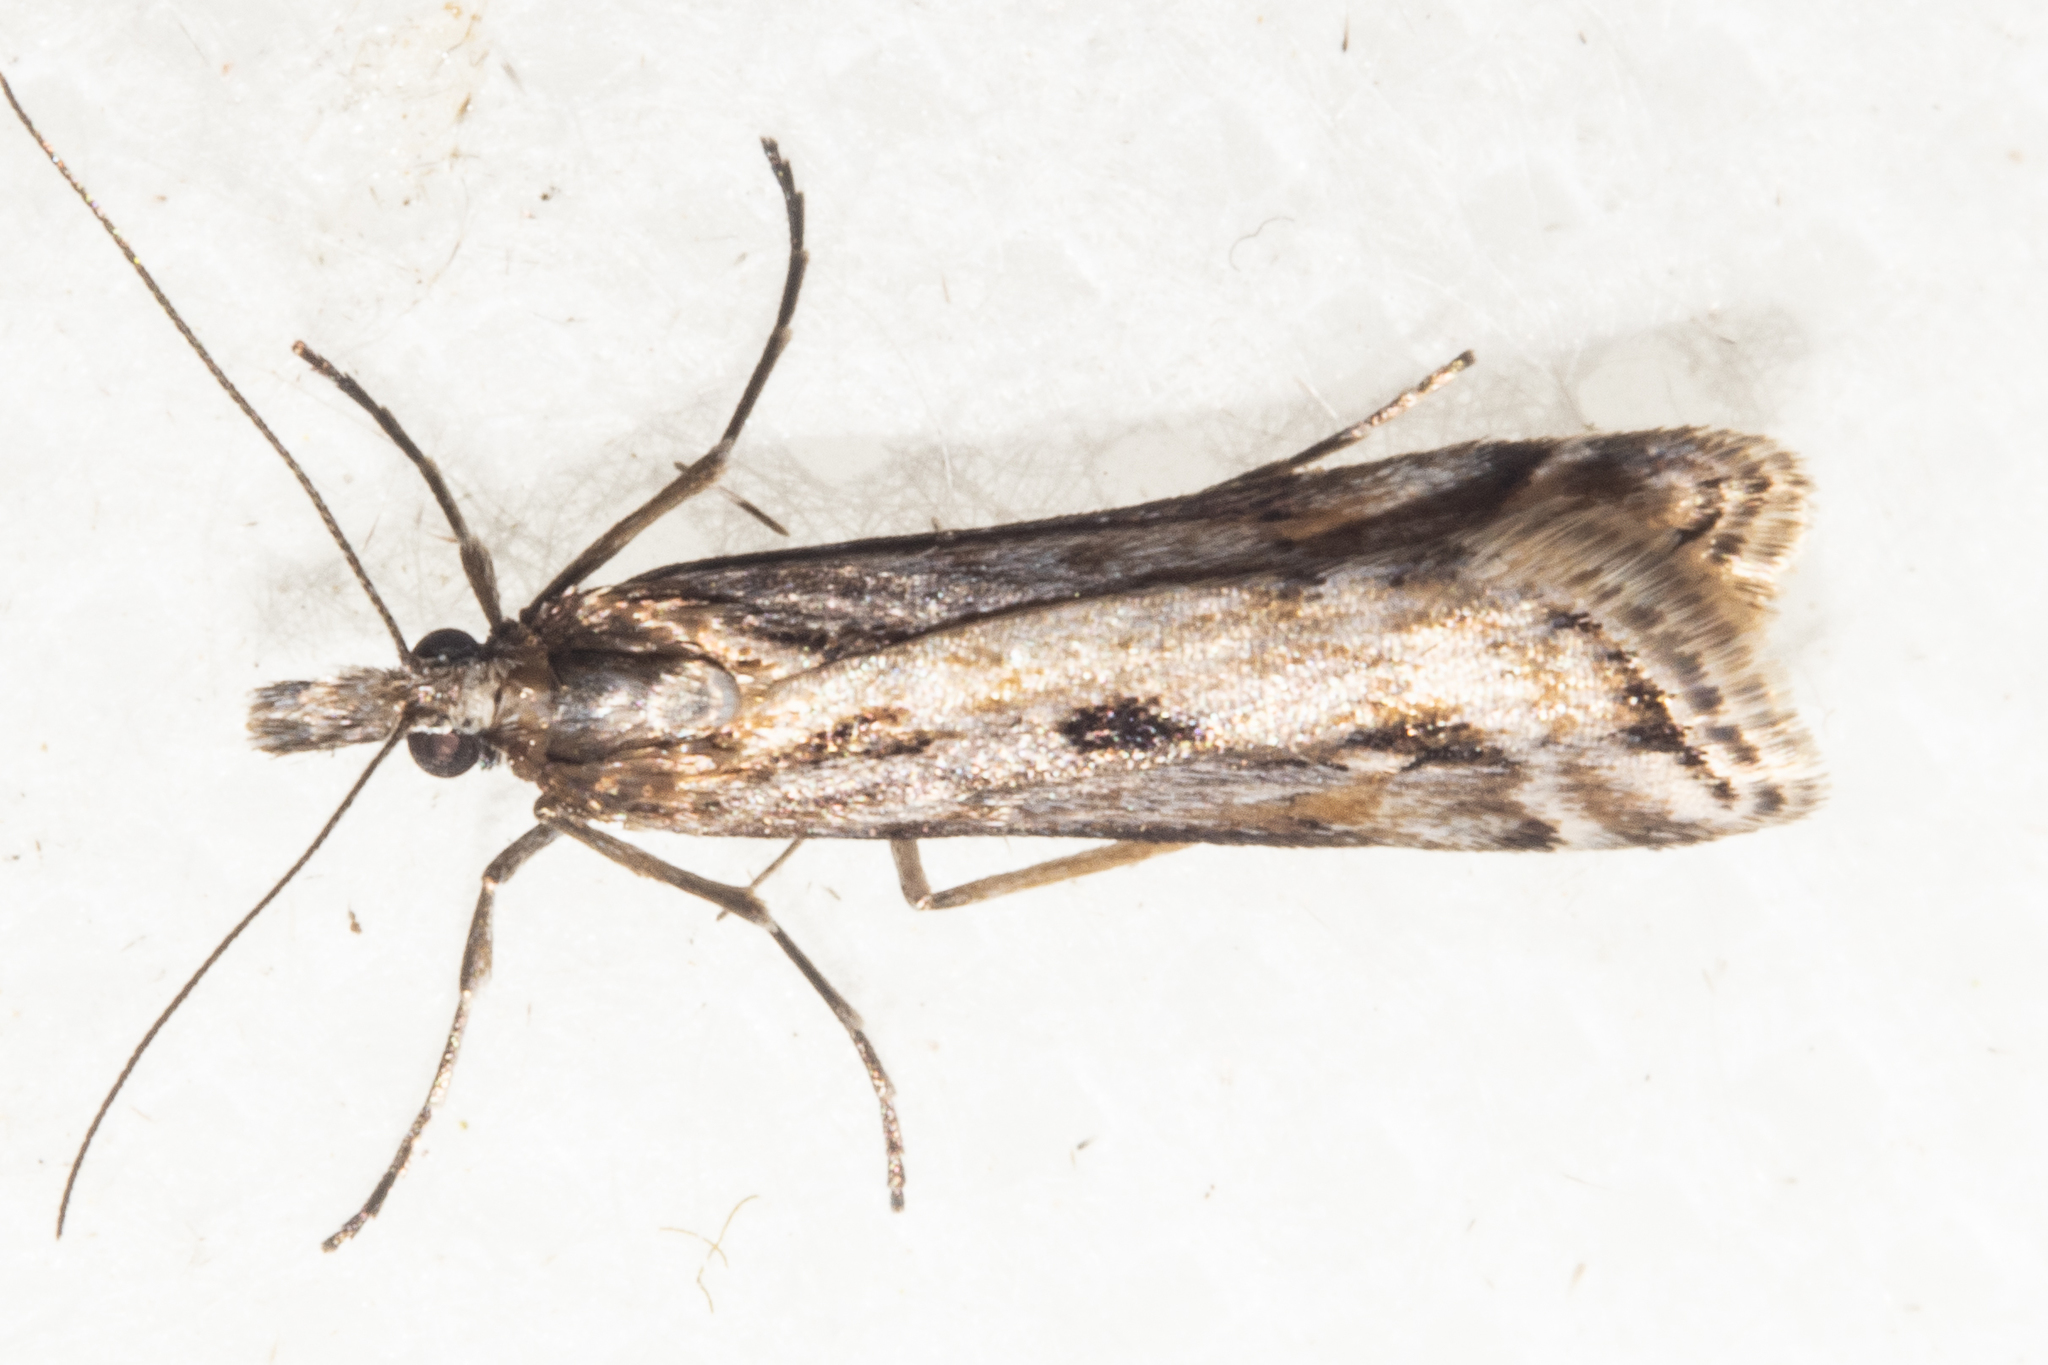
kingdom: Animalia
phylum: Arthropoda
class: Insecta
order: Lepidoptera
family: Crambidae
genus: Scoparia
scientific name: Scoparia exilis
